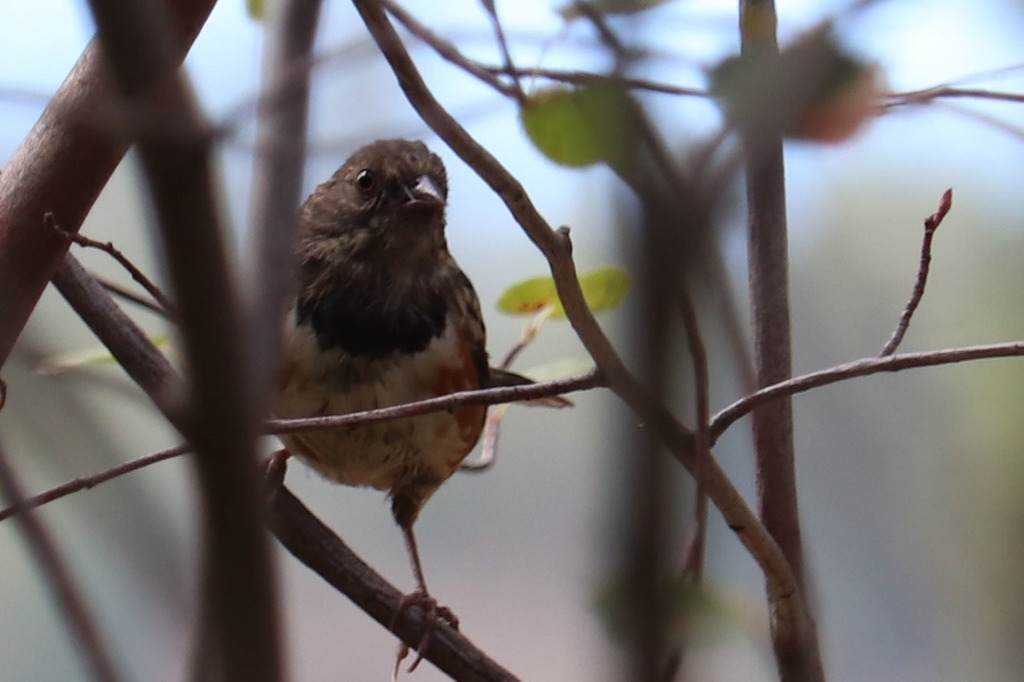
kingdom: Animalia
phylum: Chordata
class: Aves
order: Passeriformes
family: Passerellidae
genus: Pipilo
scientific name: Pipilo maculatus
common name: Spotted towhee
